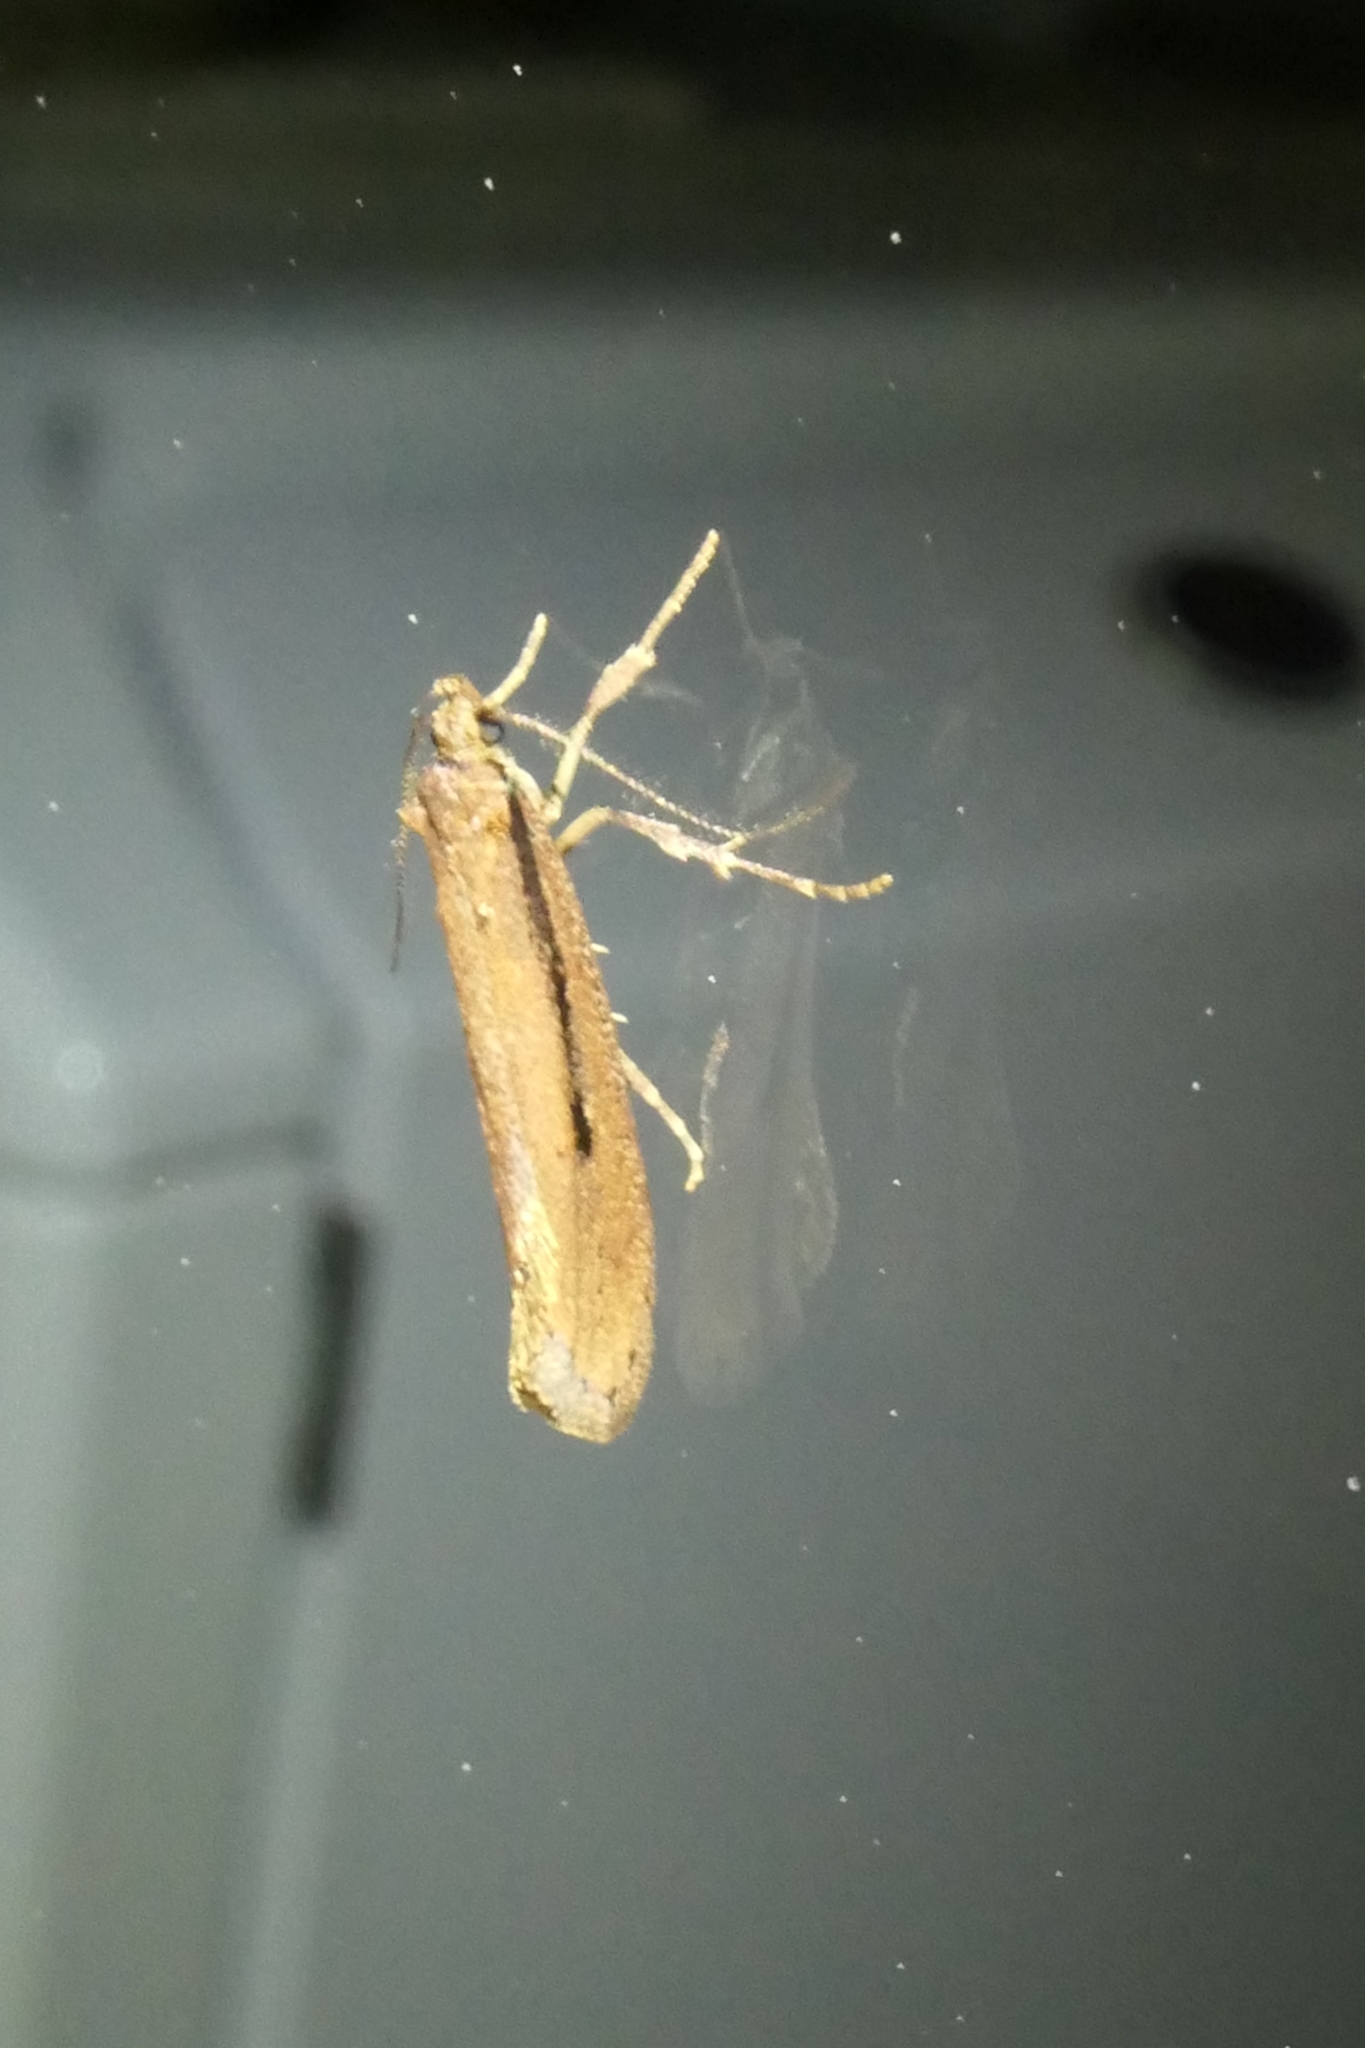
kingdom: Animalia
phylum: Arthropoda
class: Insecta
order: Lepidoptera
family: Oecophoridae
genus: Atomotricha
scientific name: Atomotricha versuta
